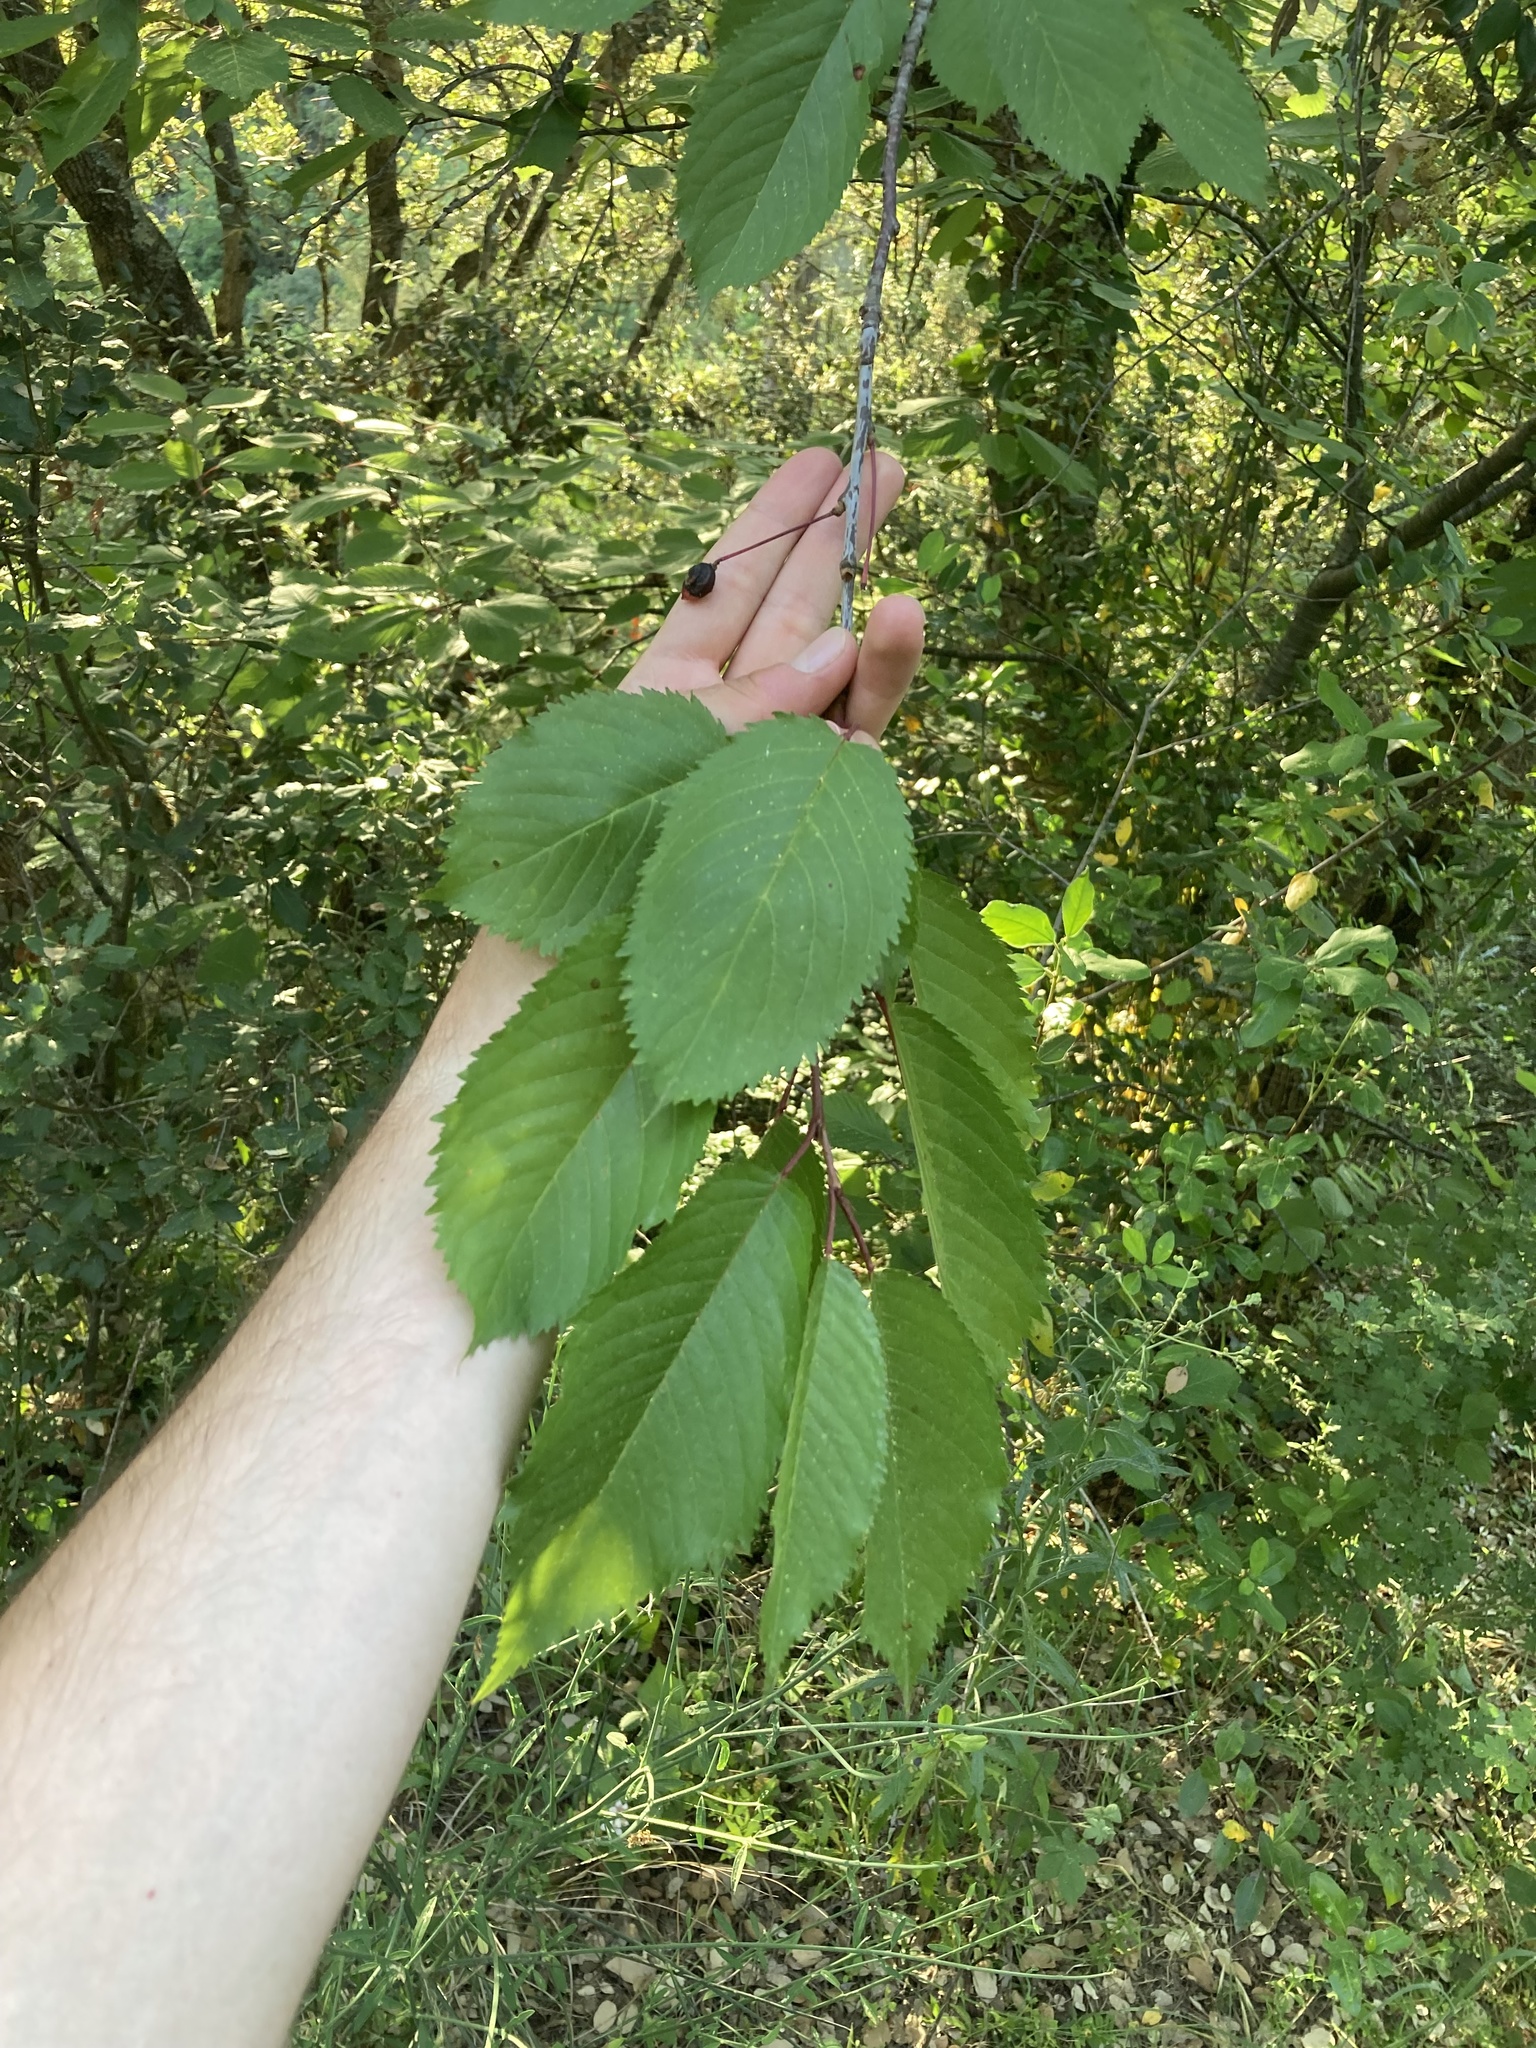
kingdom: Plantae
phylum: Tracheophyta
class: Magnoliopsida
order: Rosales
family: Rosaceae
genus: Prunus
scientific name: Prunus avium
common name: Sweet cherry
